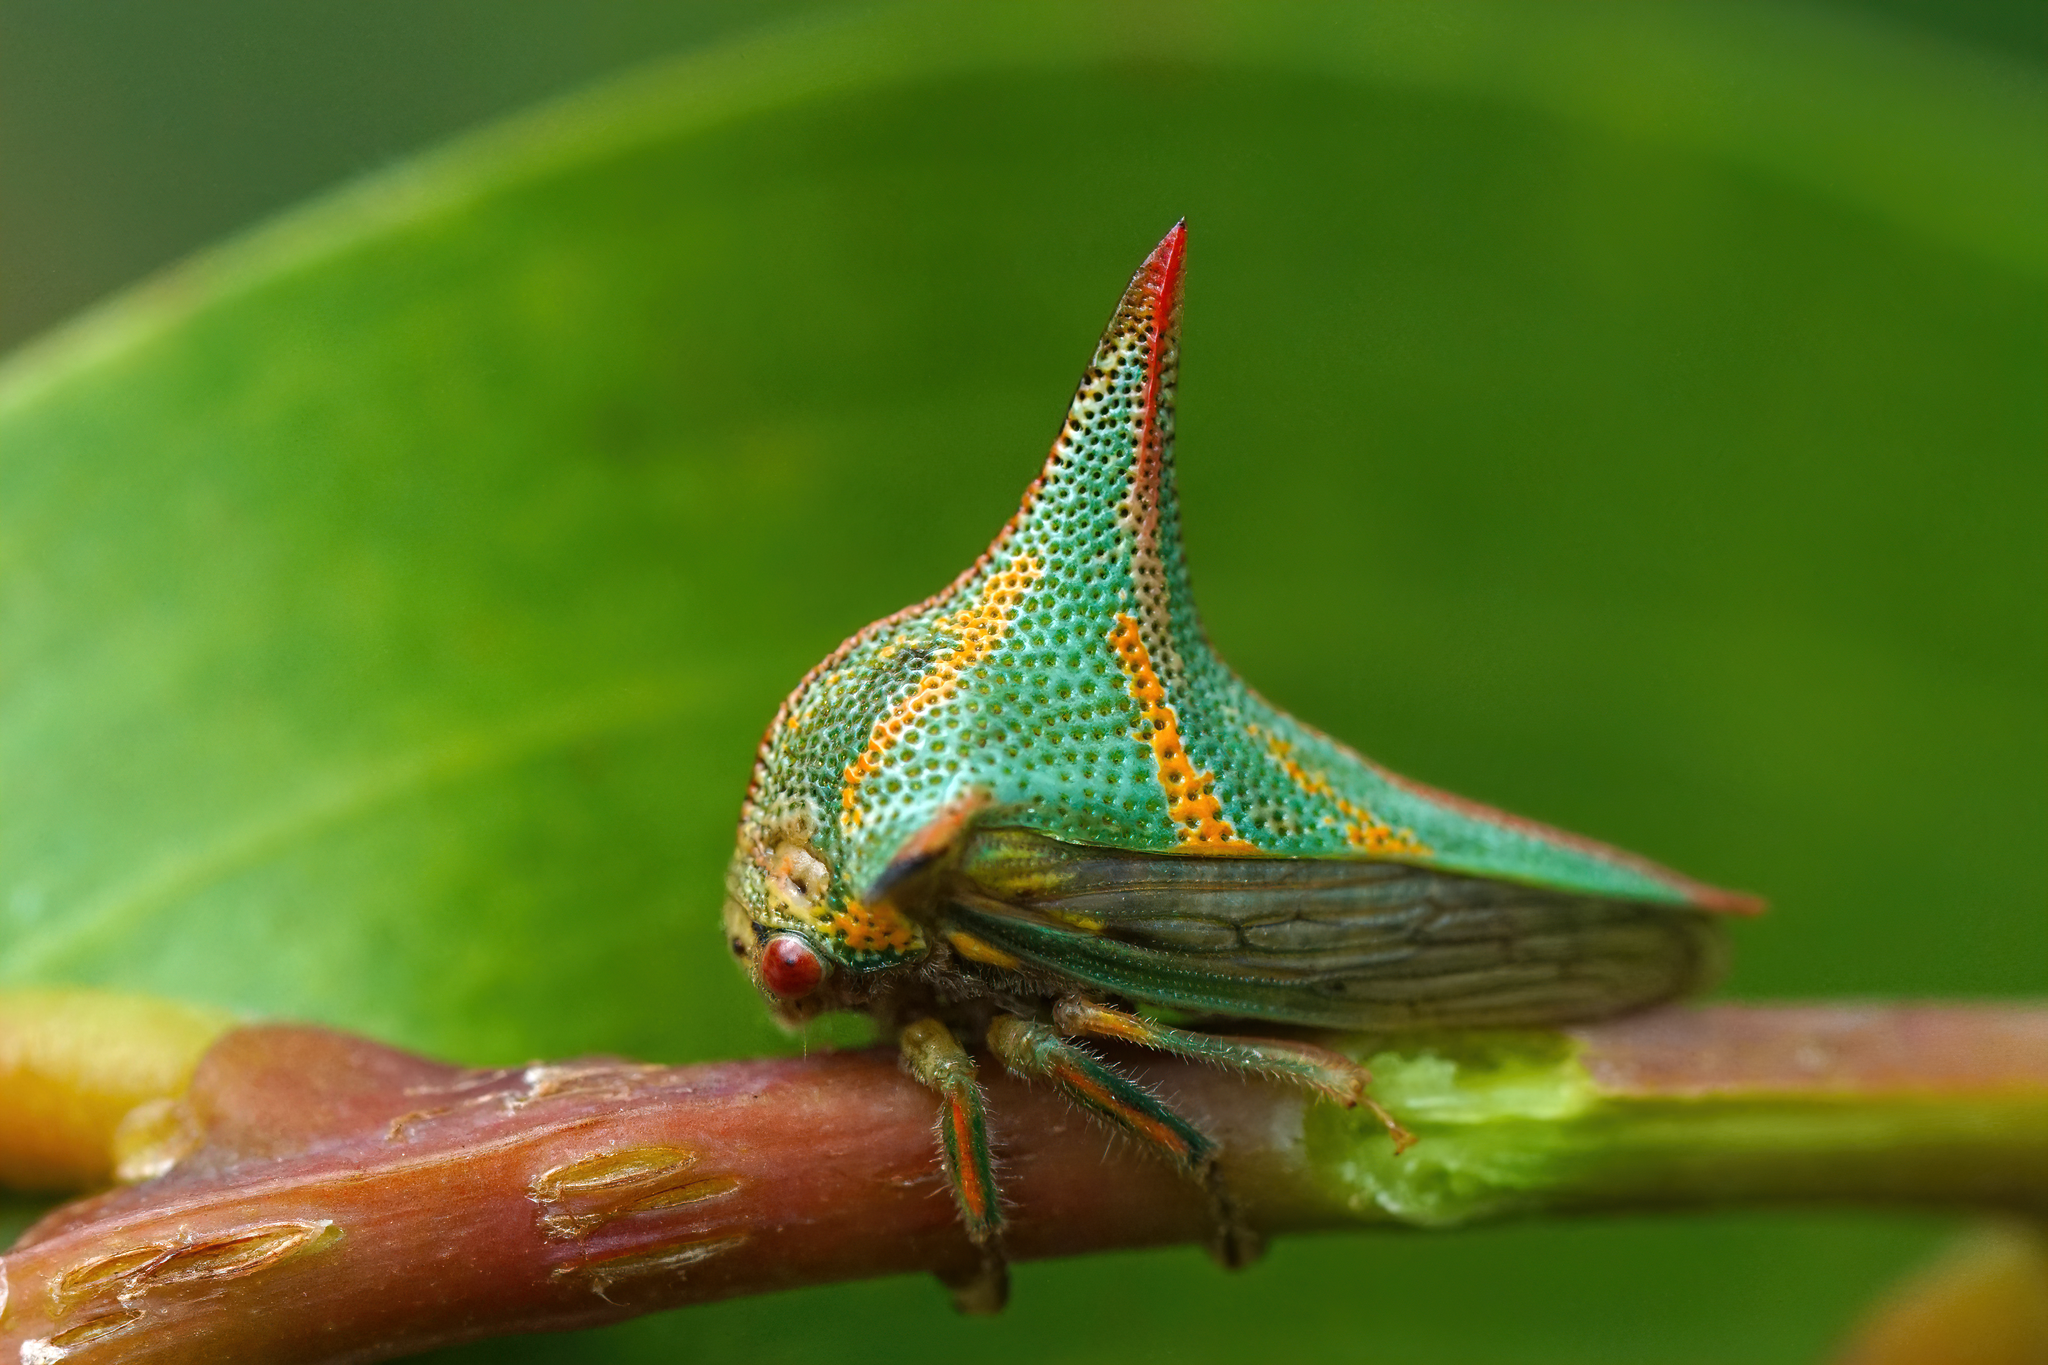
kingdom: Animalia
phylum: Arthropoda
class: Insecta
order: Hemiptera
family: Membracidae
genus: Umbonia
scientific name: Umbonia crassicornis
